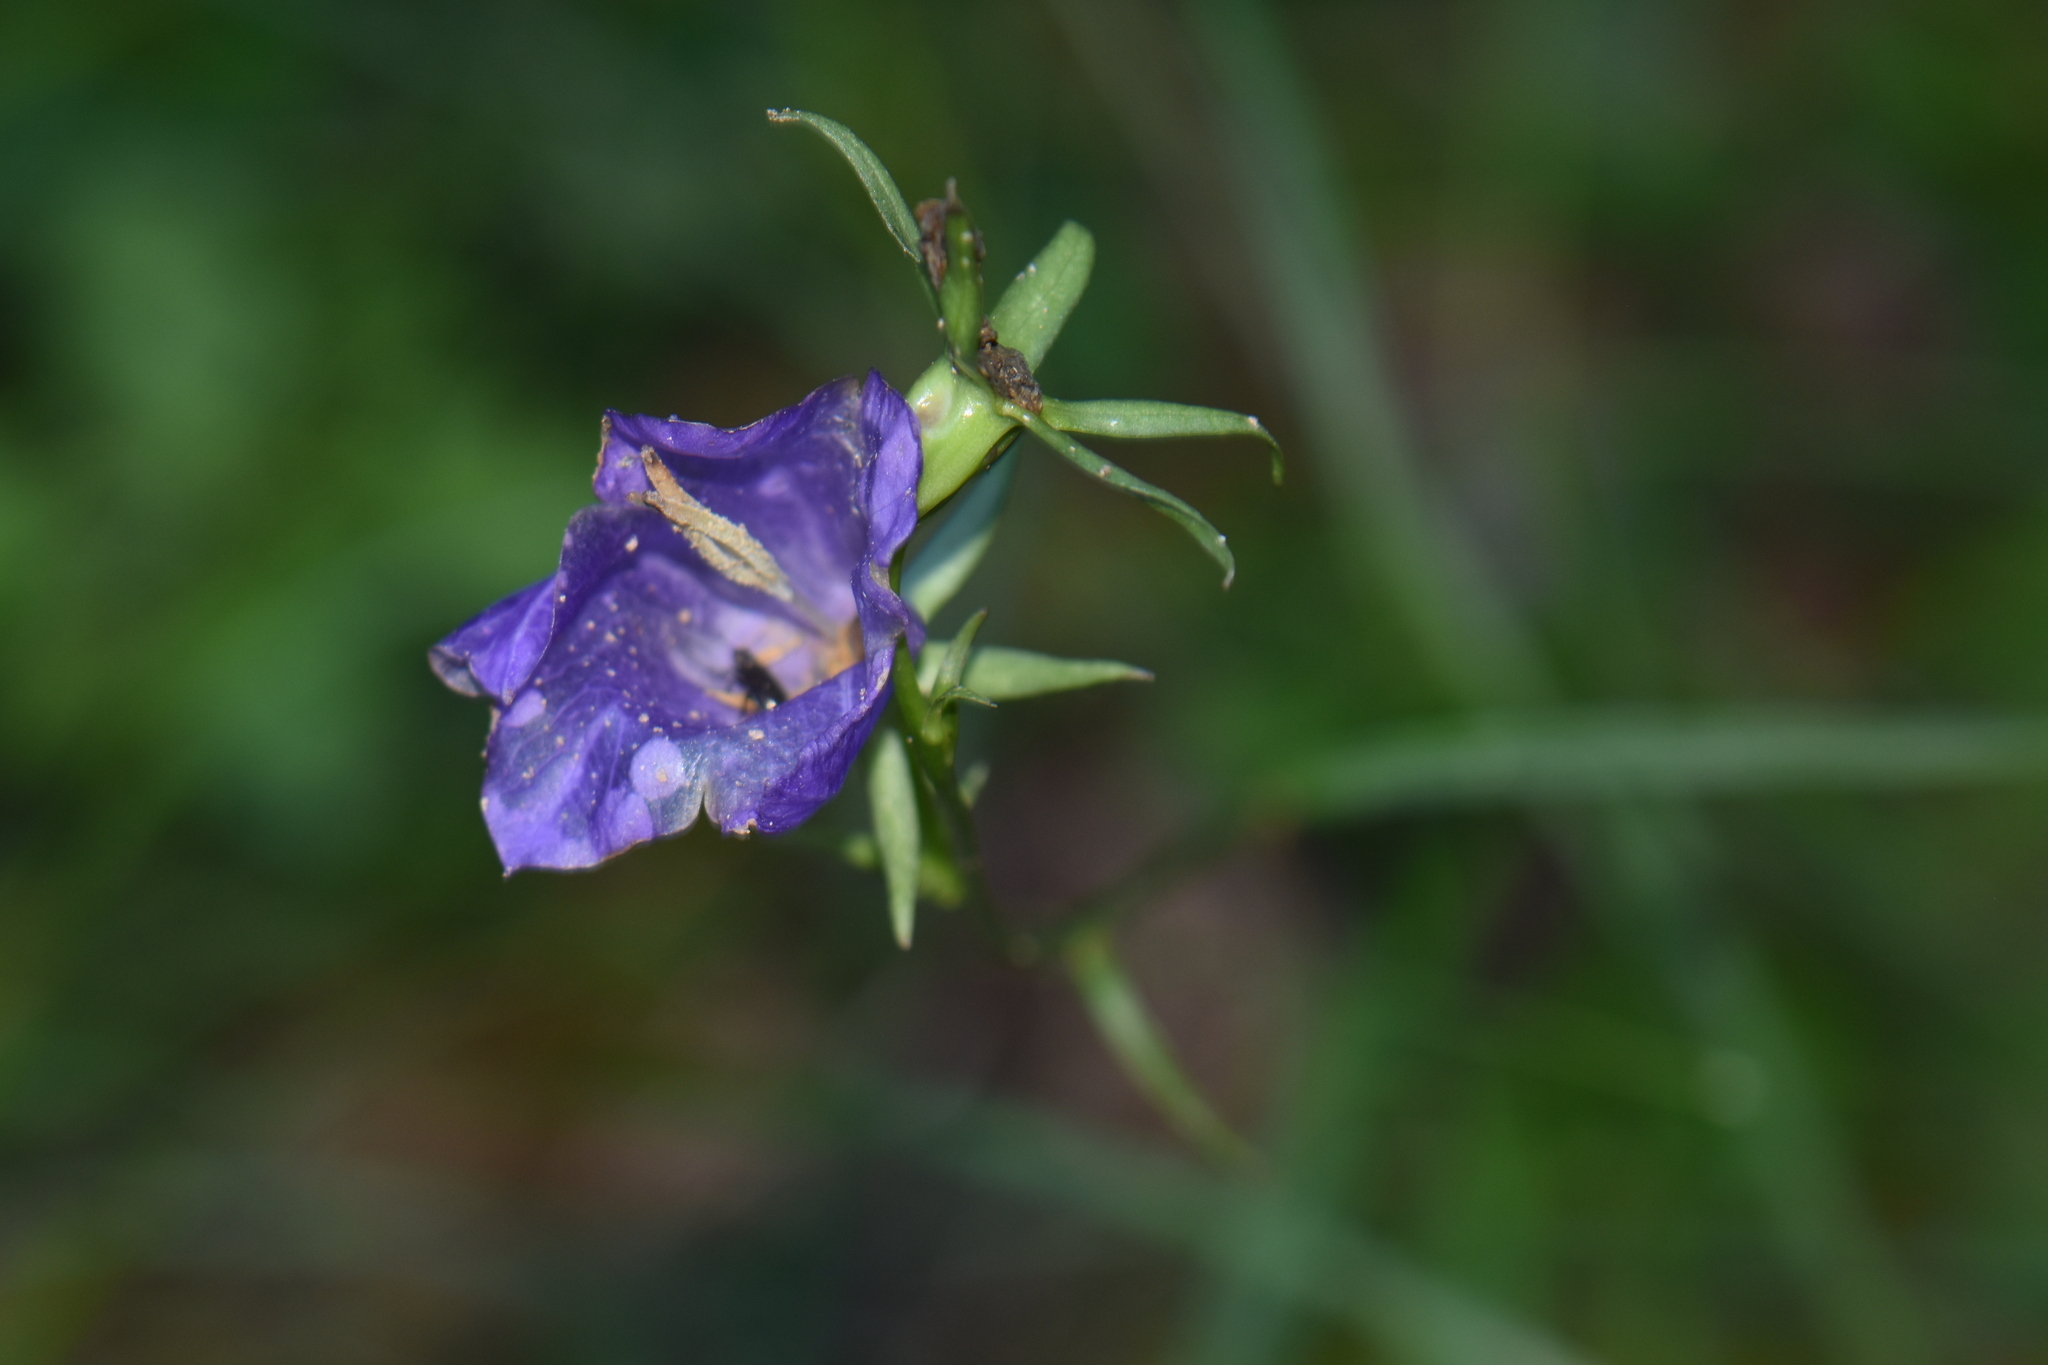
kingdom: Plantae
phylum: Tracheophyta
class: Magnoliopsida
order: Asterales
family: Campanulaceae
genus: Campanula
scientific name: Campanula persicifolia
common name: Peach-leaved bellflower
